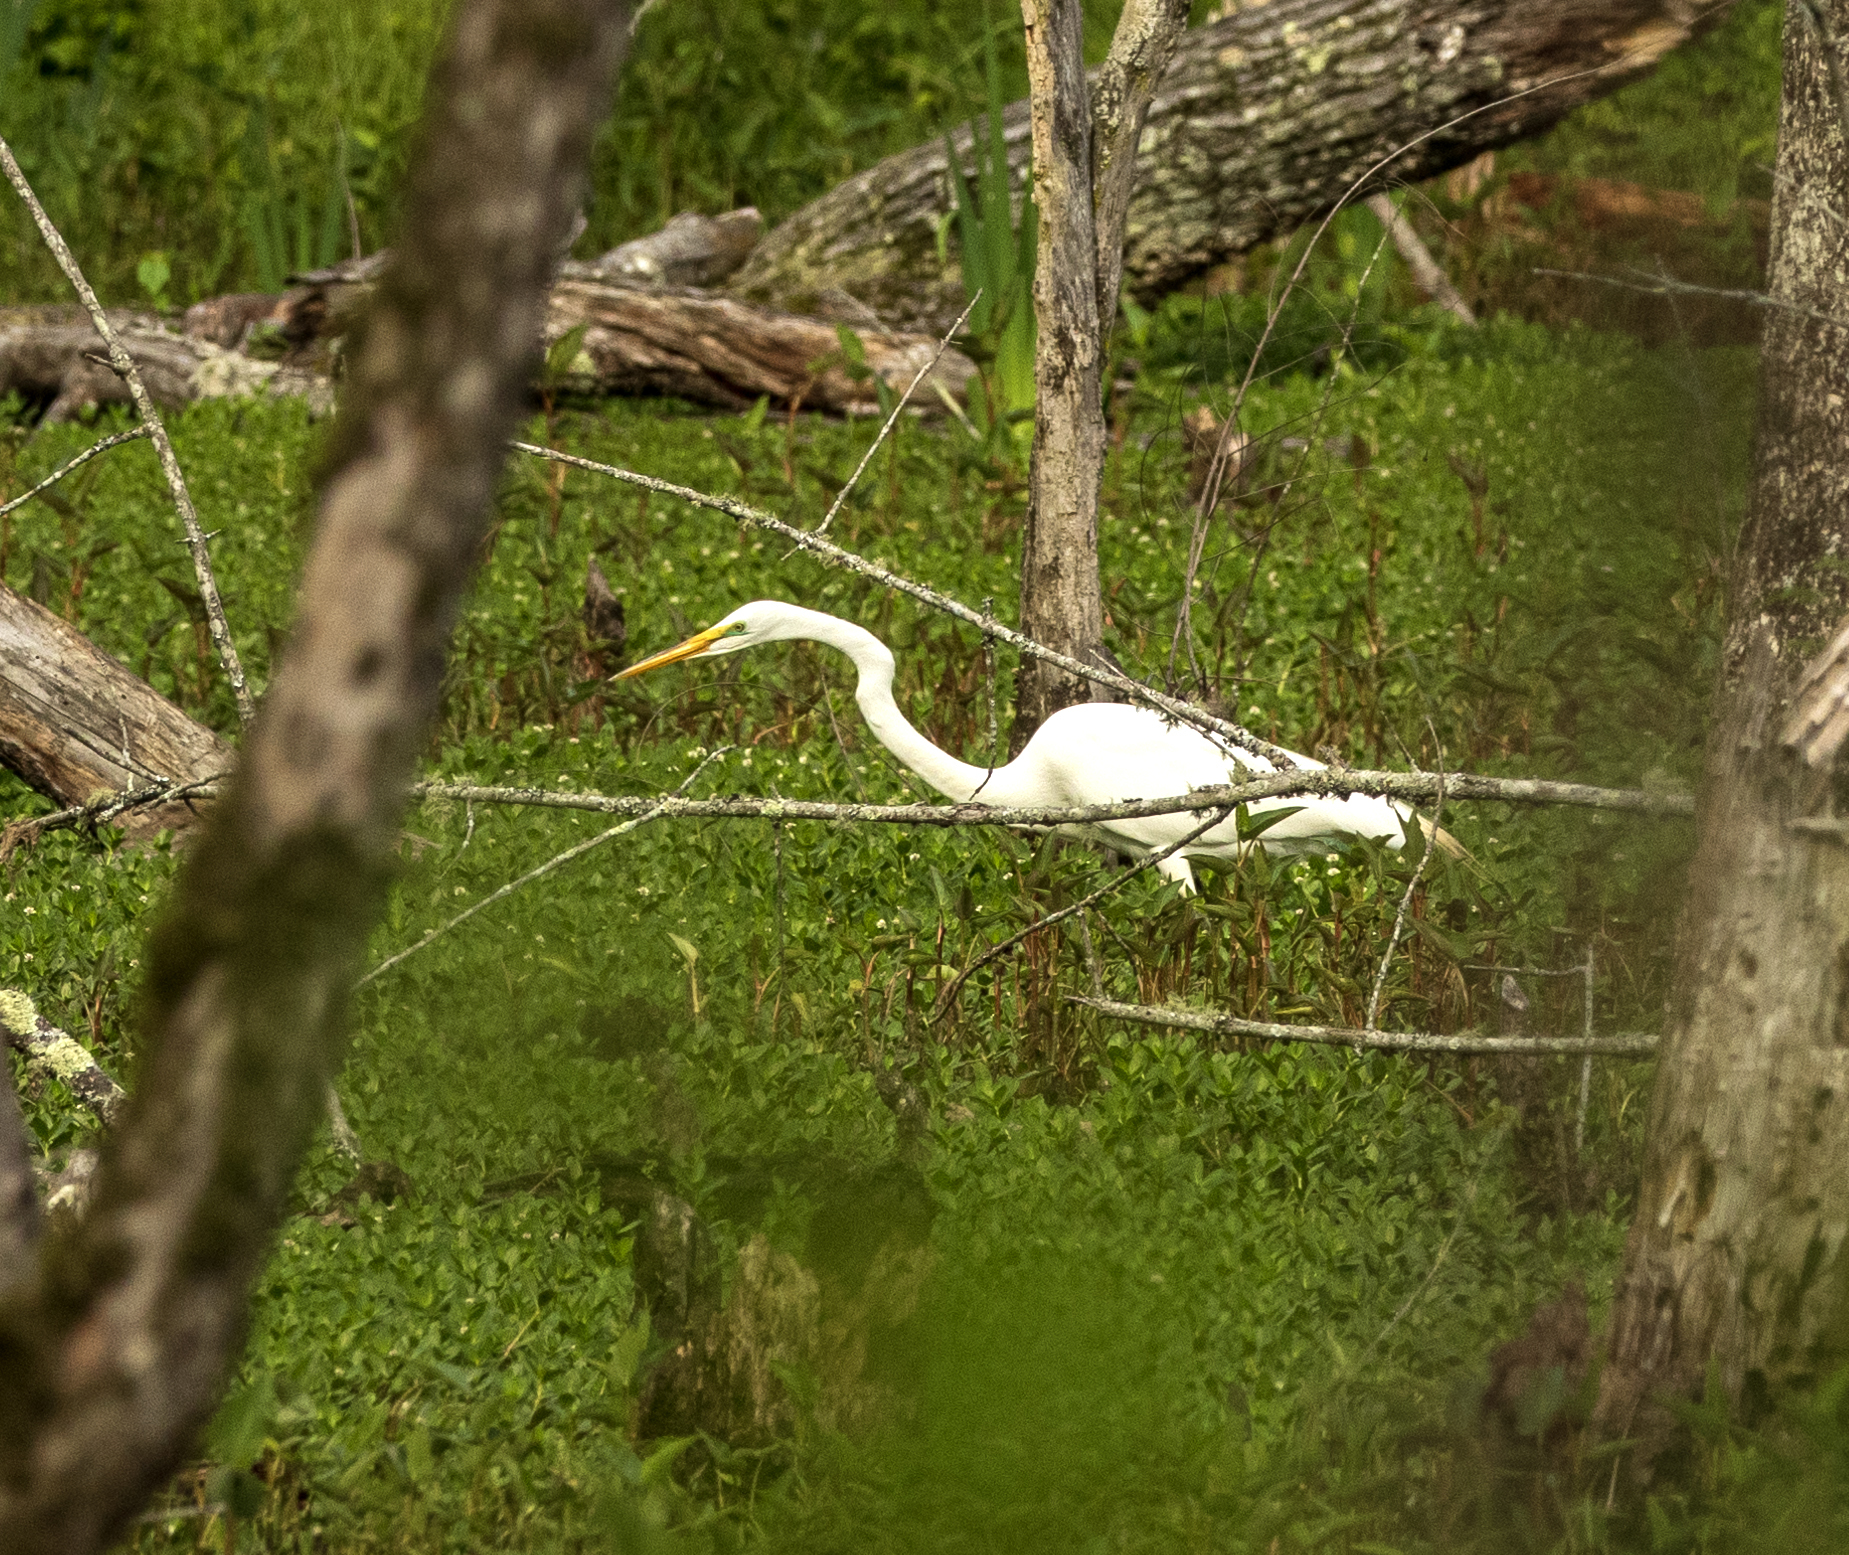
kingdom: Animalia
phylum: Chordata
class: Aves
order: Pelecaniformes
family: Ardeidae
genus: Ardea
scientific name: Ardea alba
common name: Great egret
